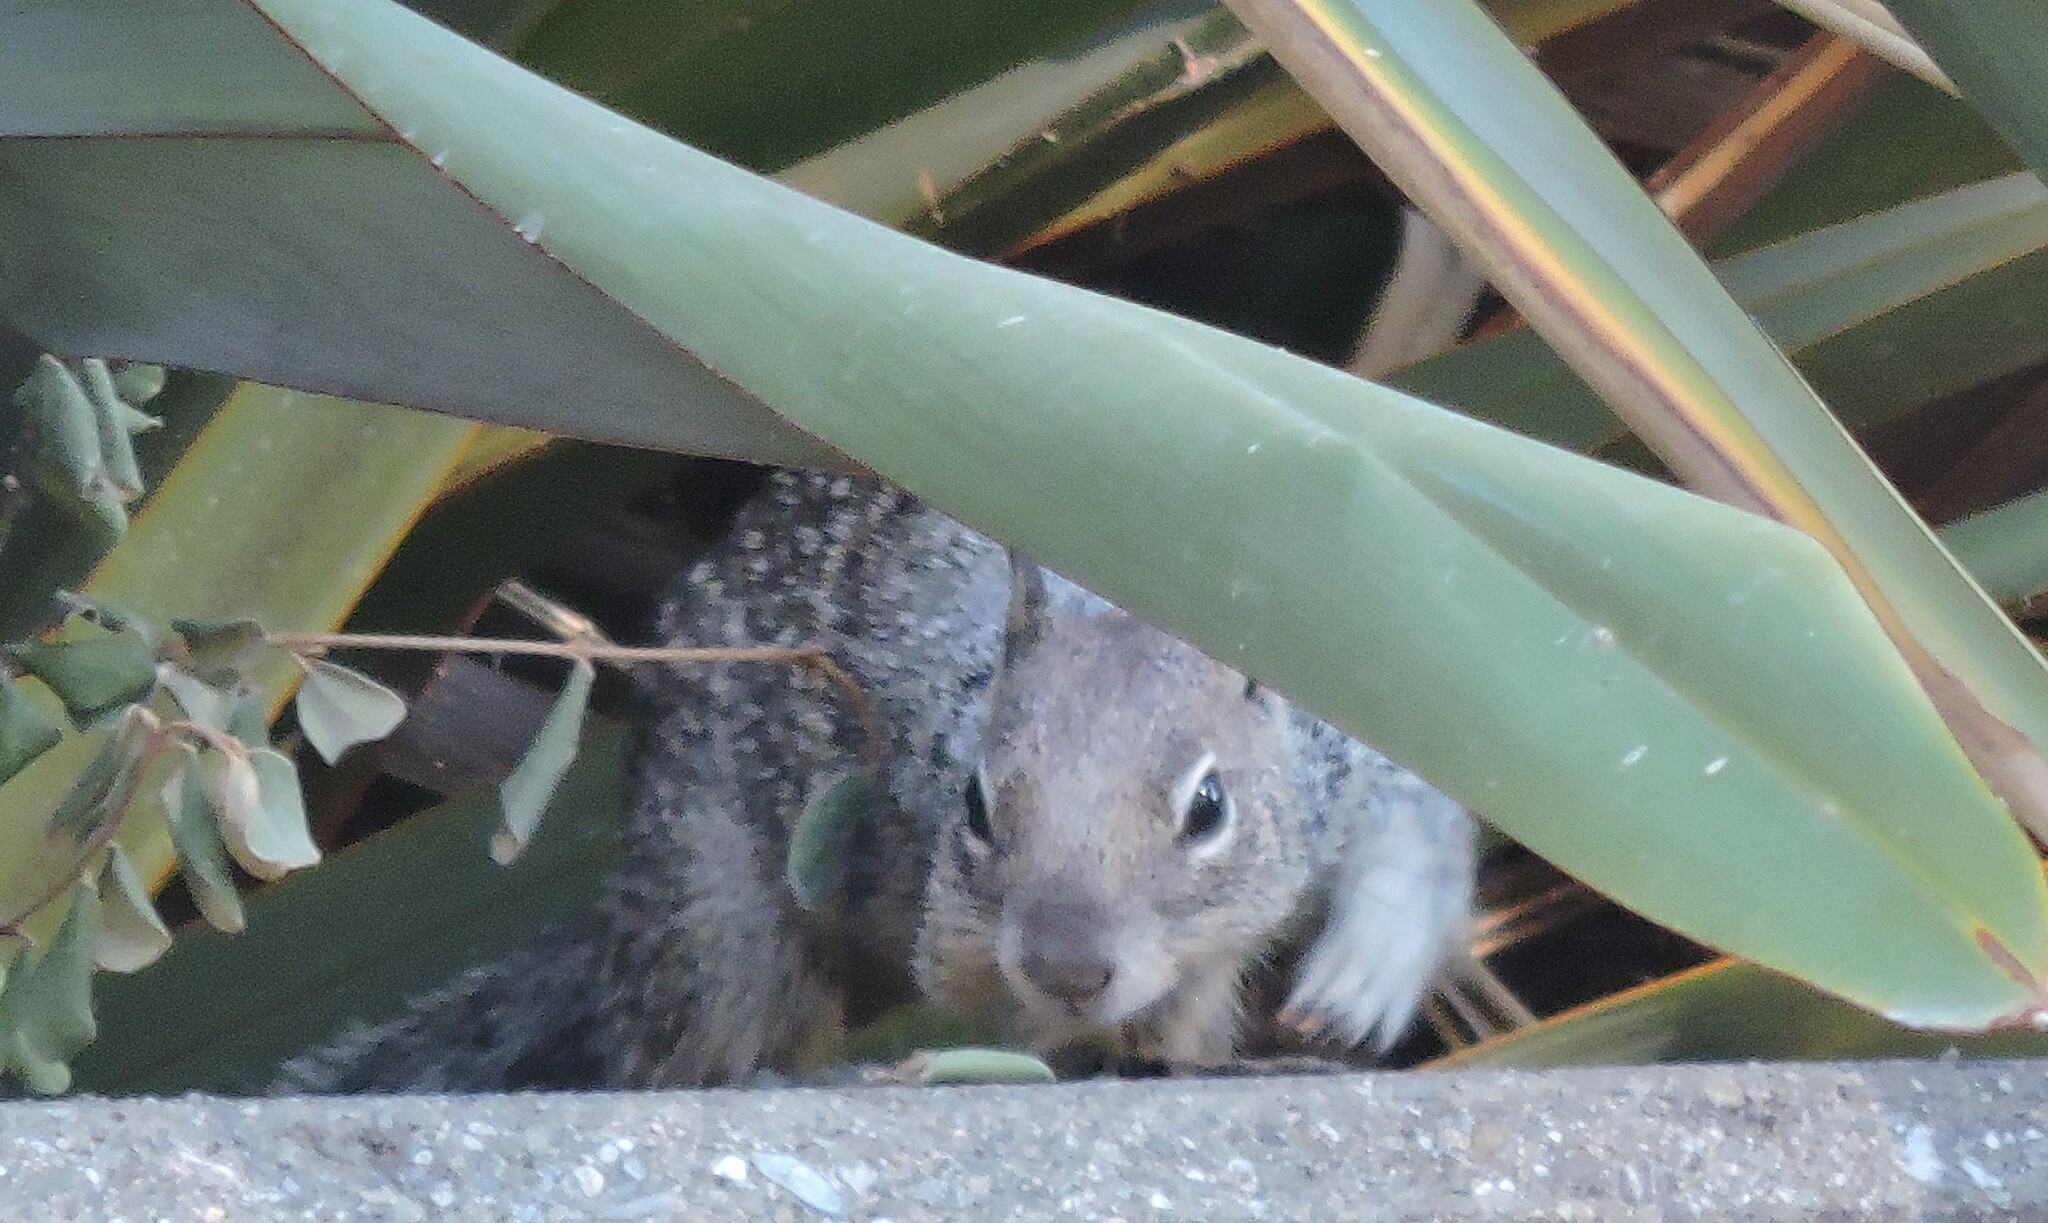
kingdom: Animalia
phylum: Chordata
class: Mammalia
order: Rodentia
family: Sciuridae
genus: Otospermophilus
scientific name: Otospermophilus beecheyi
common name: California ground squirrel
